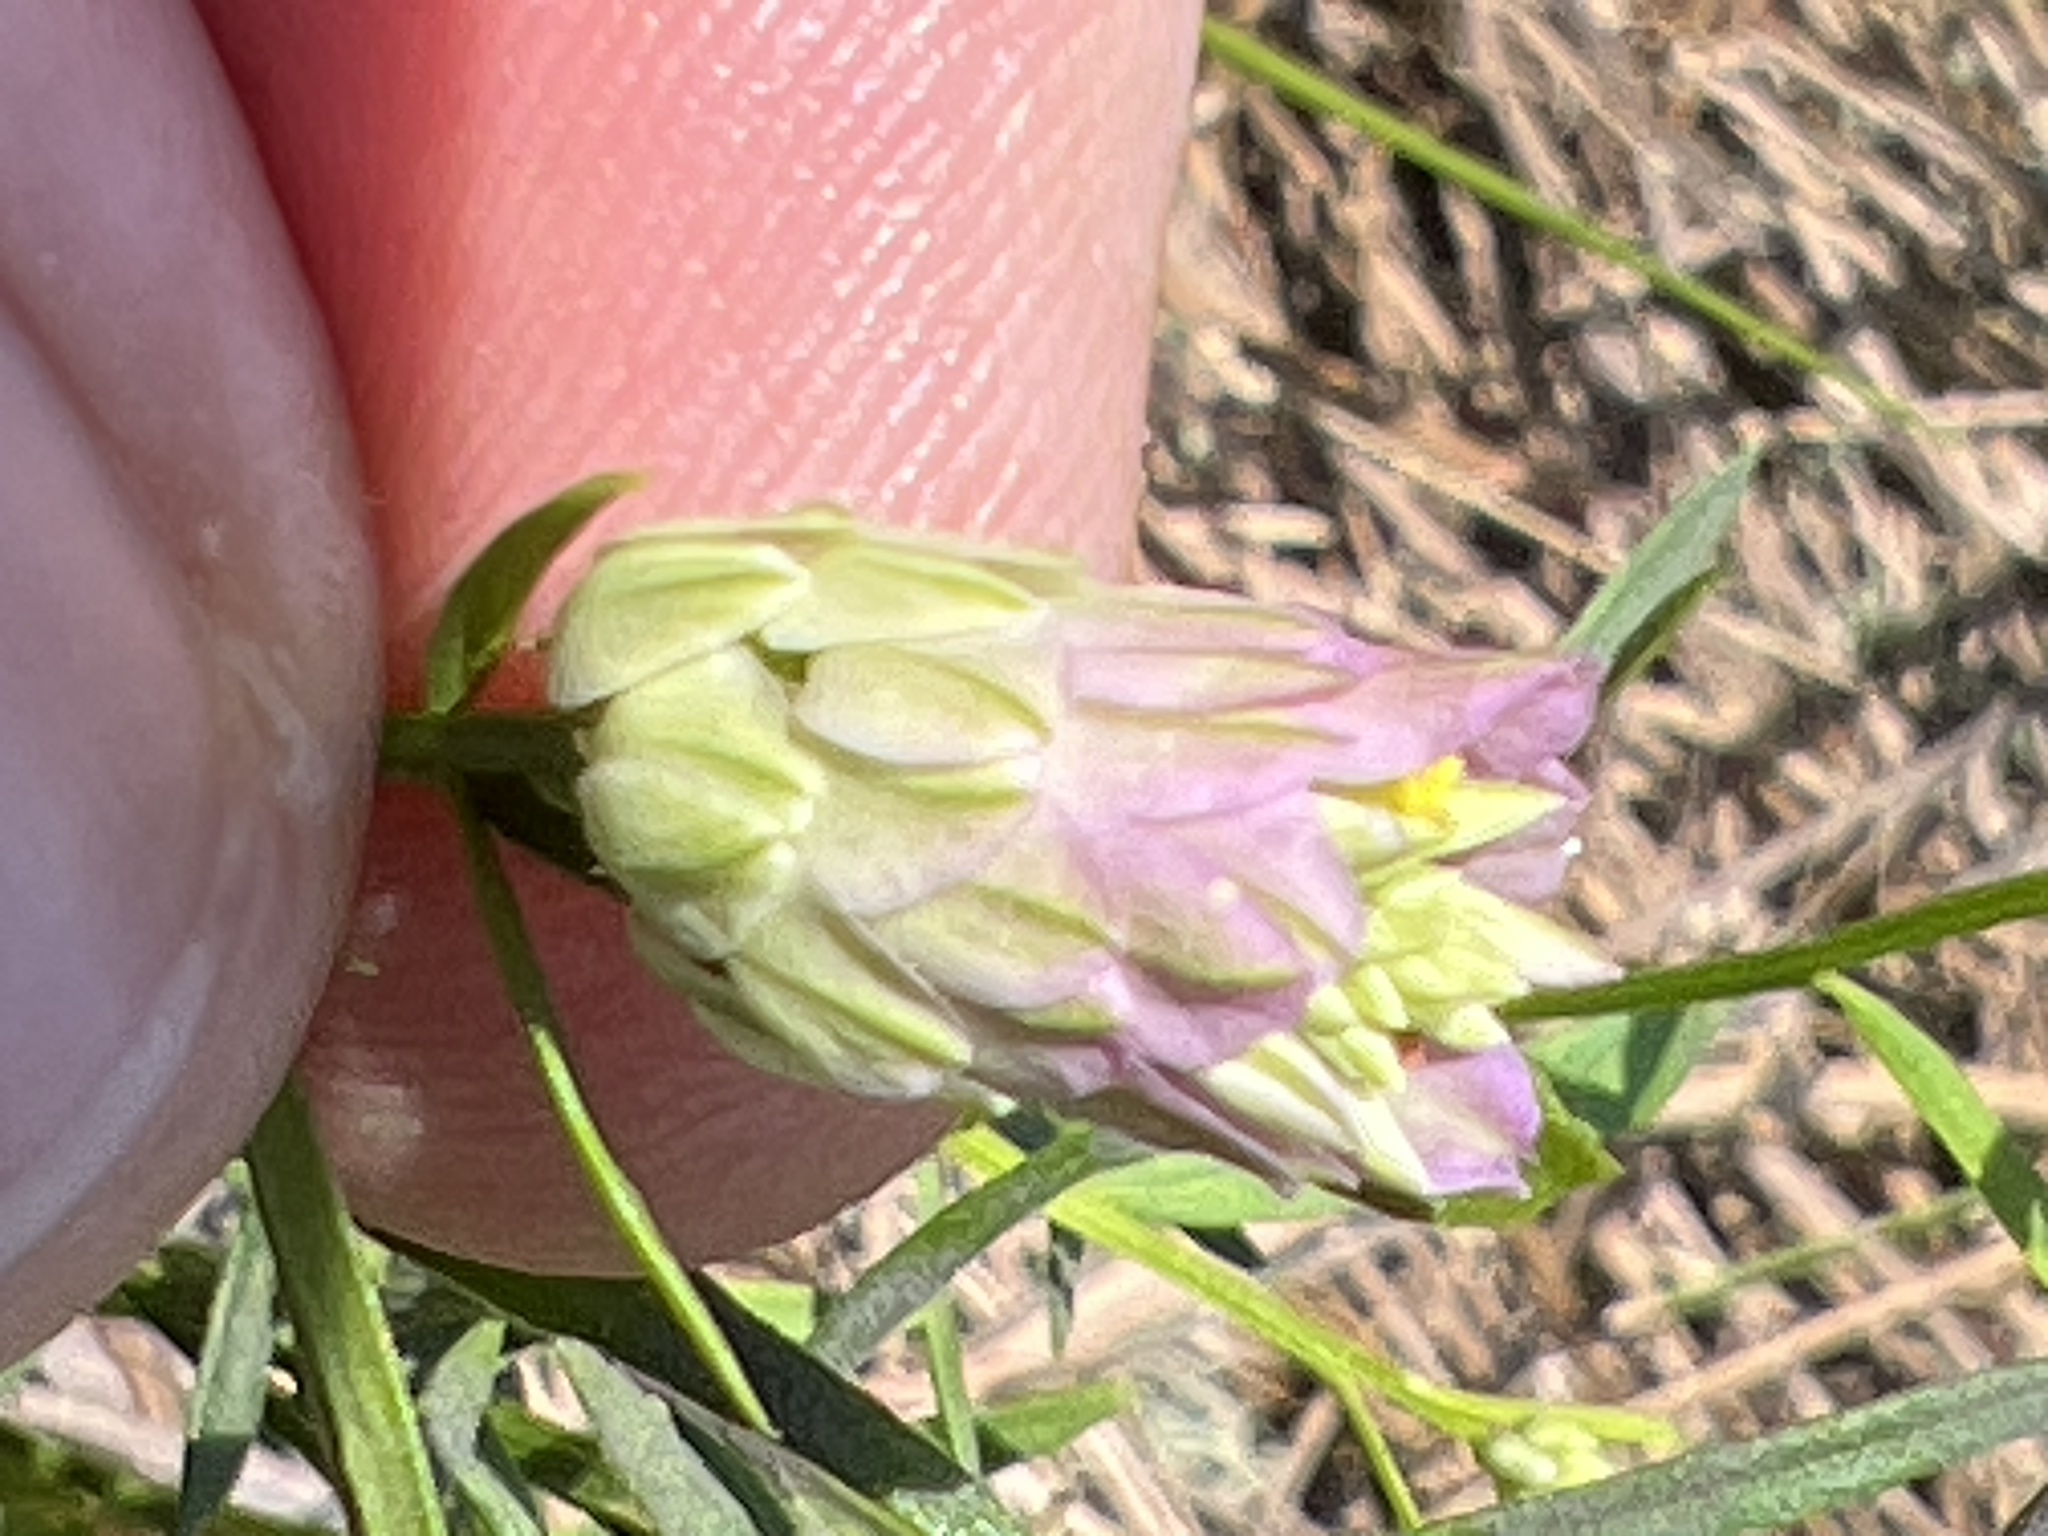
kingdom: Plantae
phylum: Tracheophyta
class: Magnoliopsida
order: Fabales
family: Polygalaceae
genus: Polygala
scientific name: Polygala sanguinea
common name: Blood milkwort
